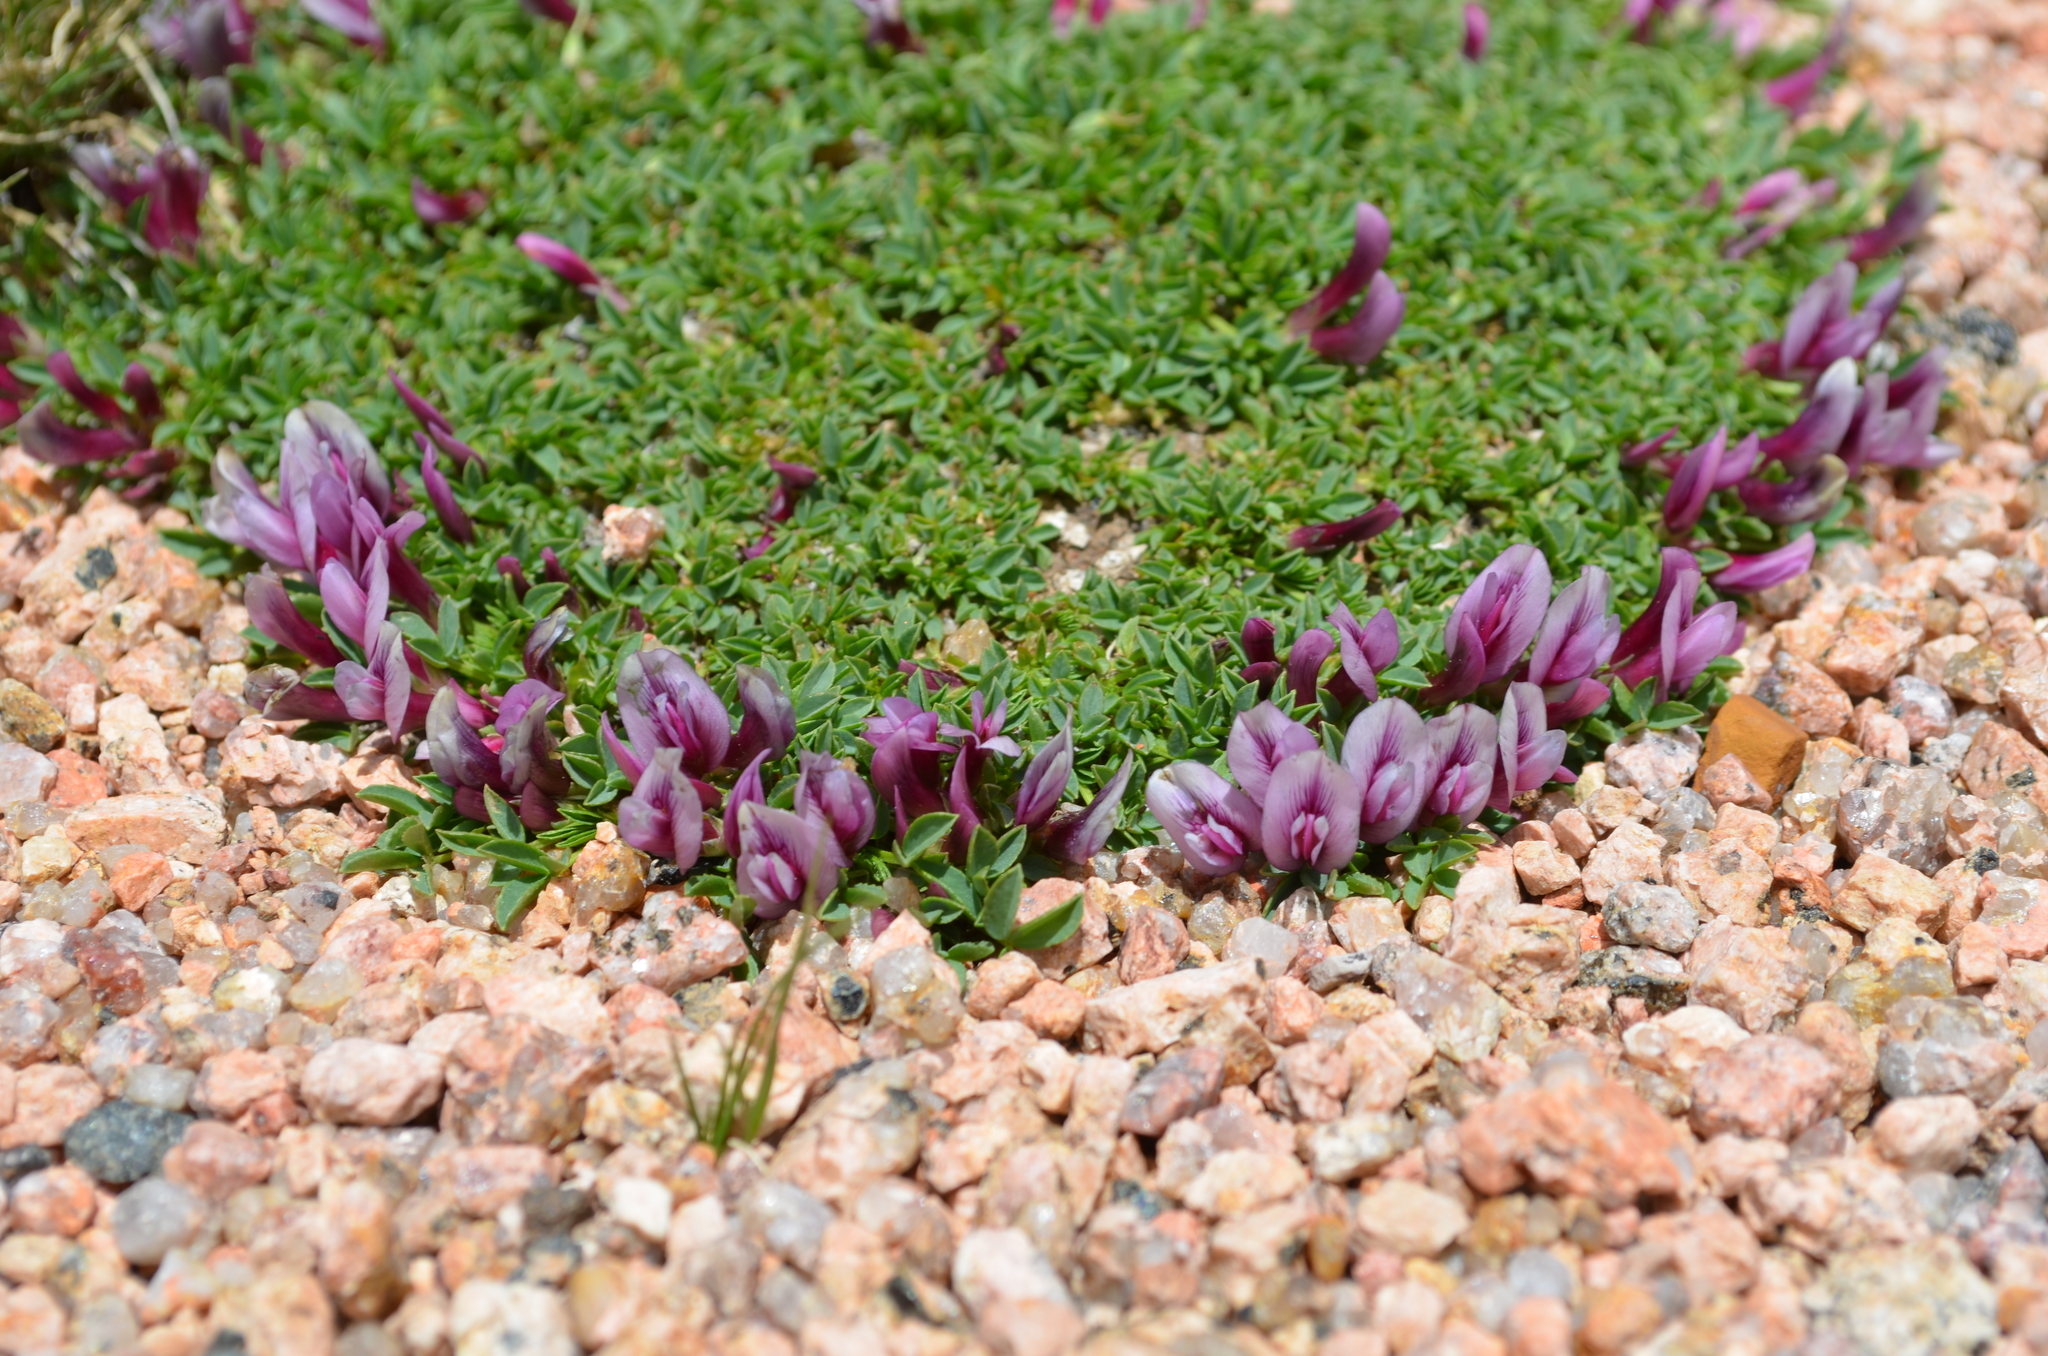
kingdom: Plantae
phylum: Tracheophyta
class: Magnoliopsida
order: Fabales
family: Fabaceae
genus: Trifolium
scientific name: Trifolium nanum
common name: Tundra clover
